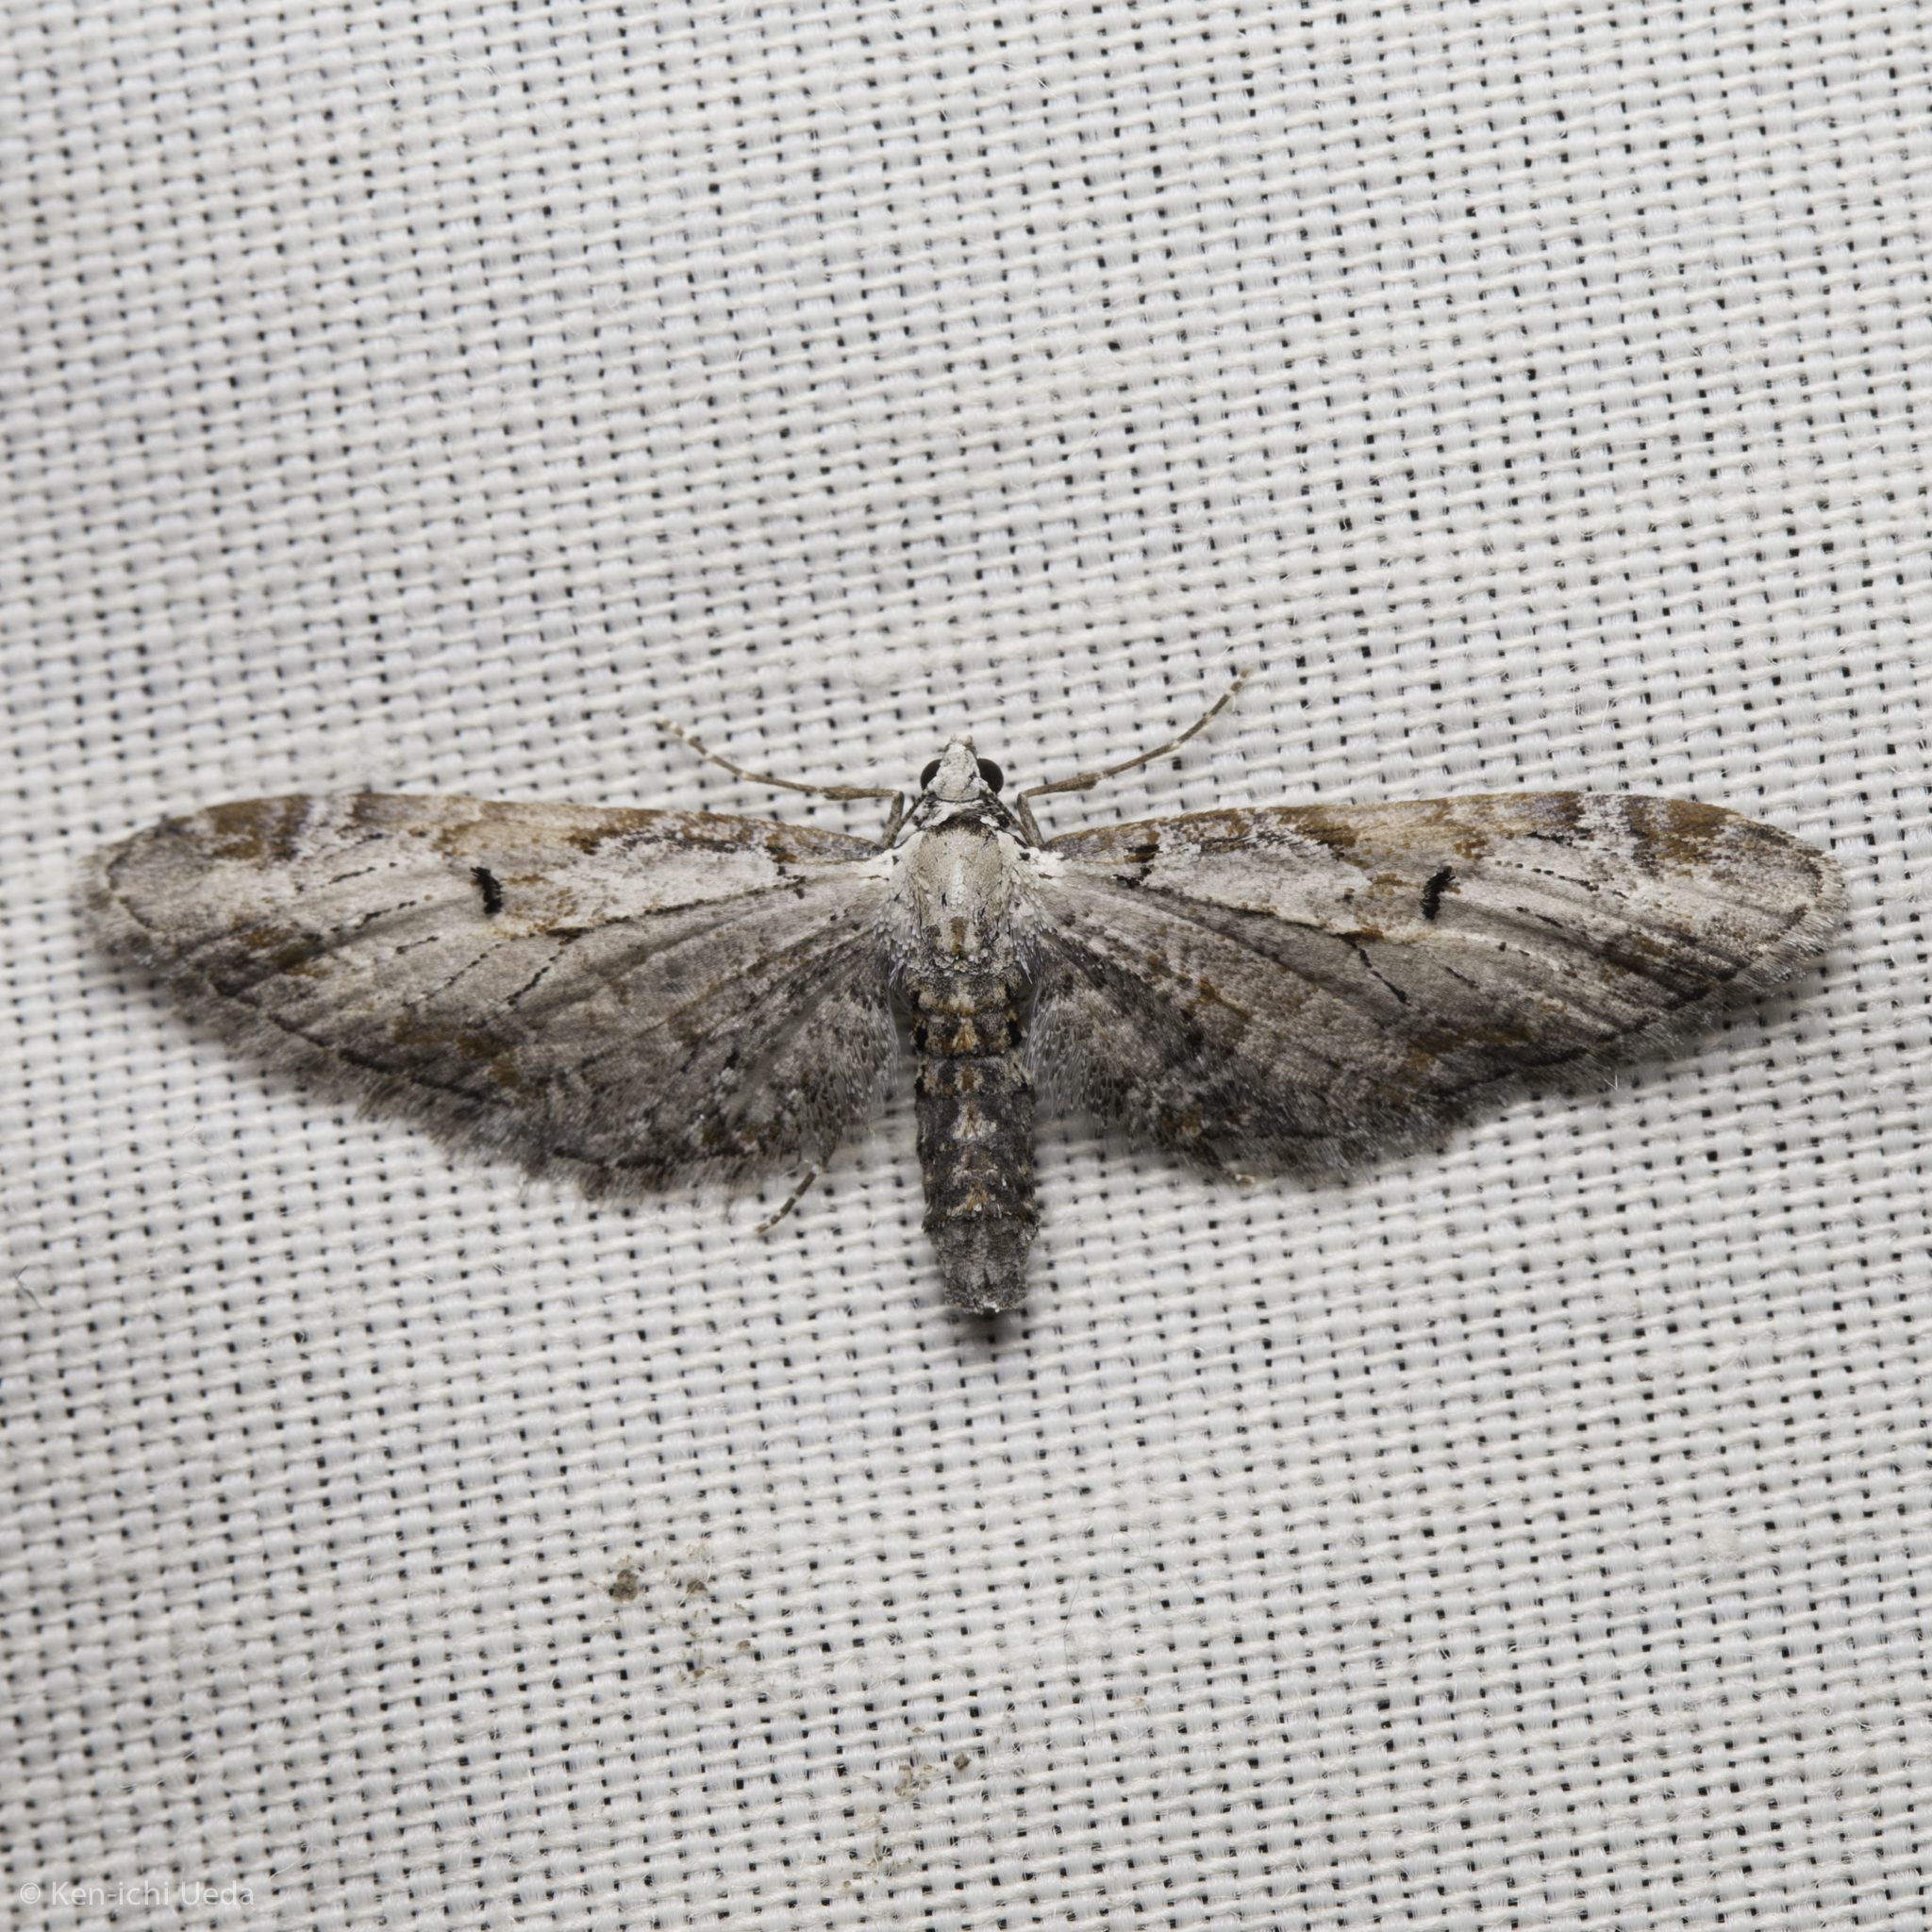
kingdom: Animalia
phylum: Arthropoda
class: Insecta
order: Lepidoptera
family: Geometridae
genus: Eupithecia
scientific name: Eupithecia nevadata
